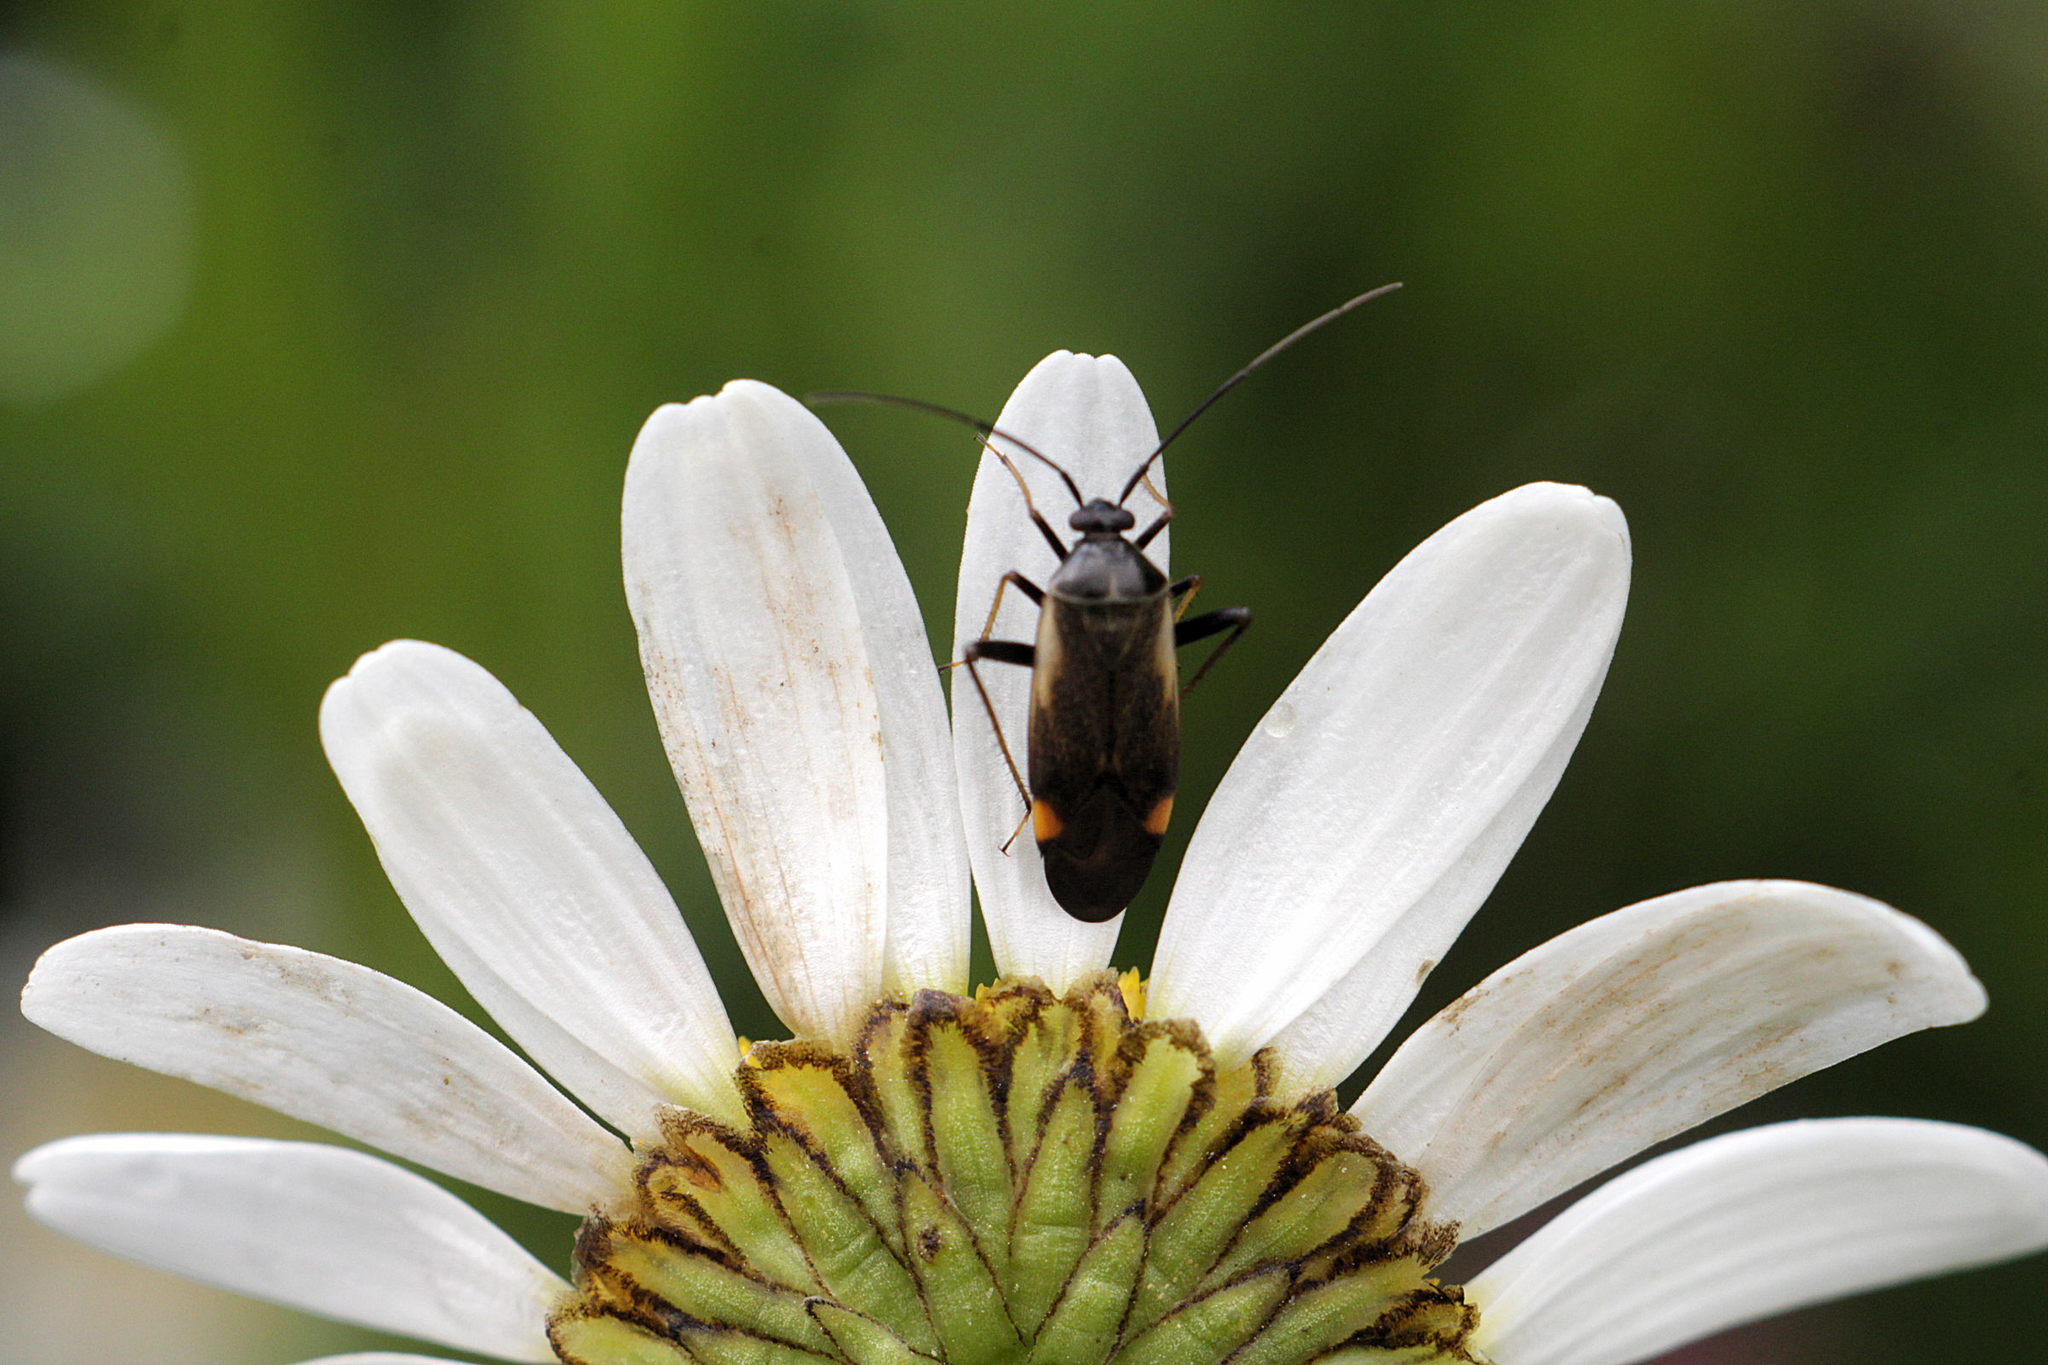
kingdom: Animalia
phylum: Arthropoda
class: Insecta
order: Hemiptera
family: Miridae
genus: Adelphocoris
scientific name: Adelphocoris seticornis
